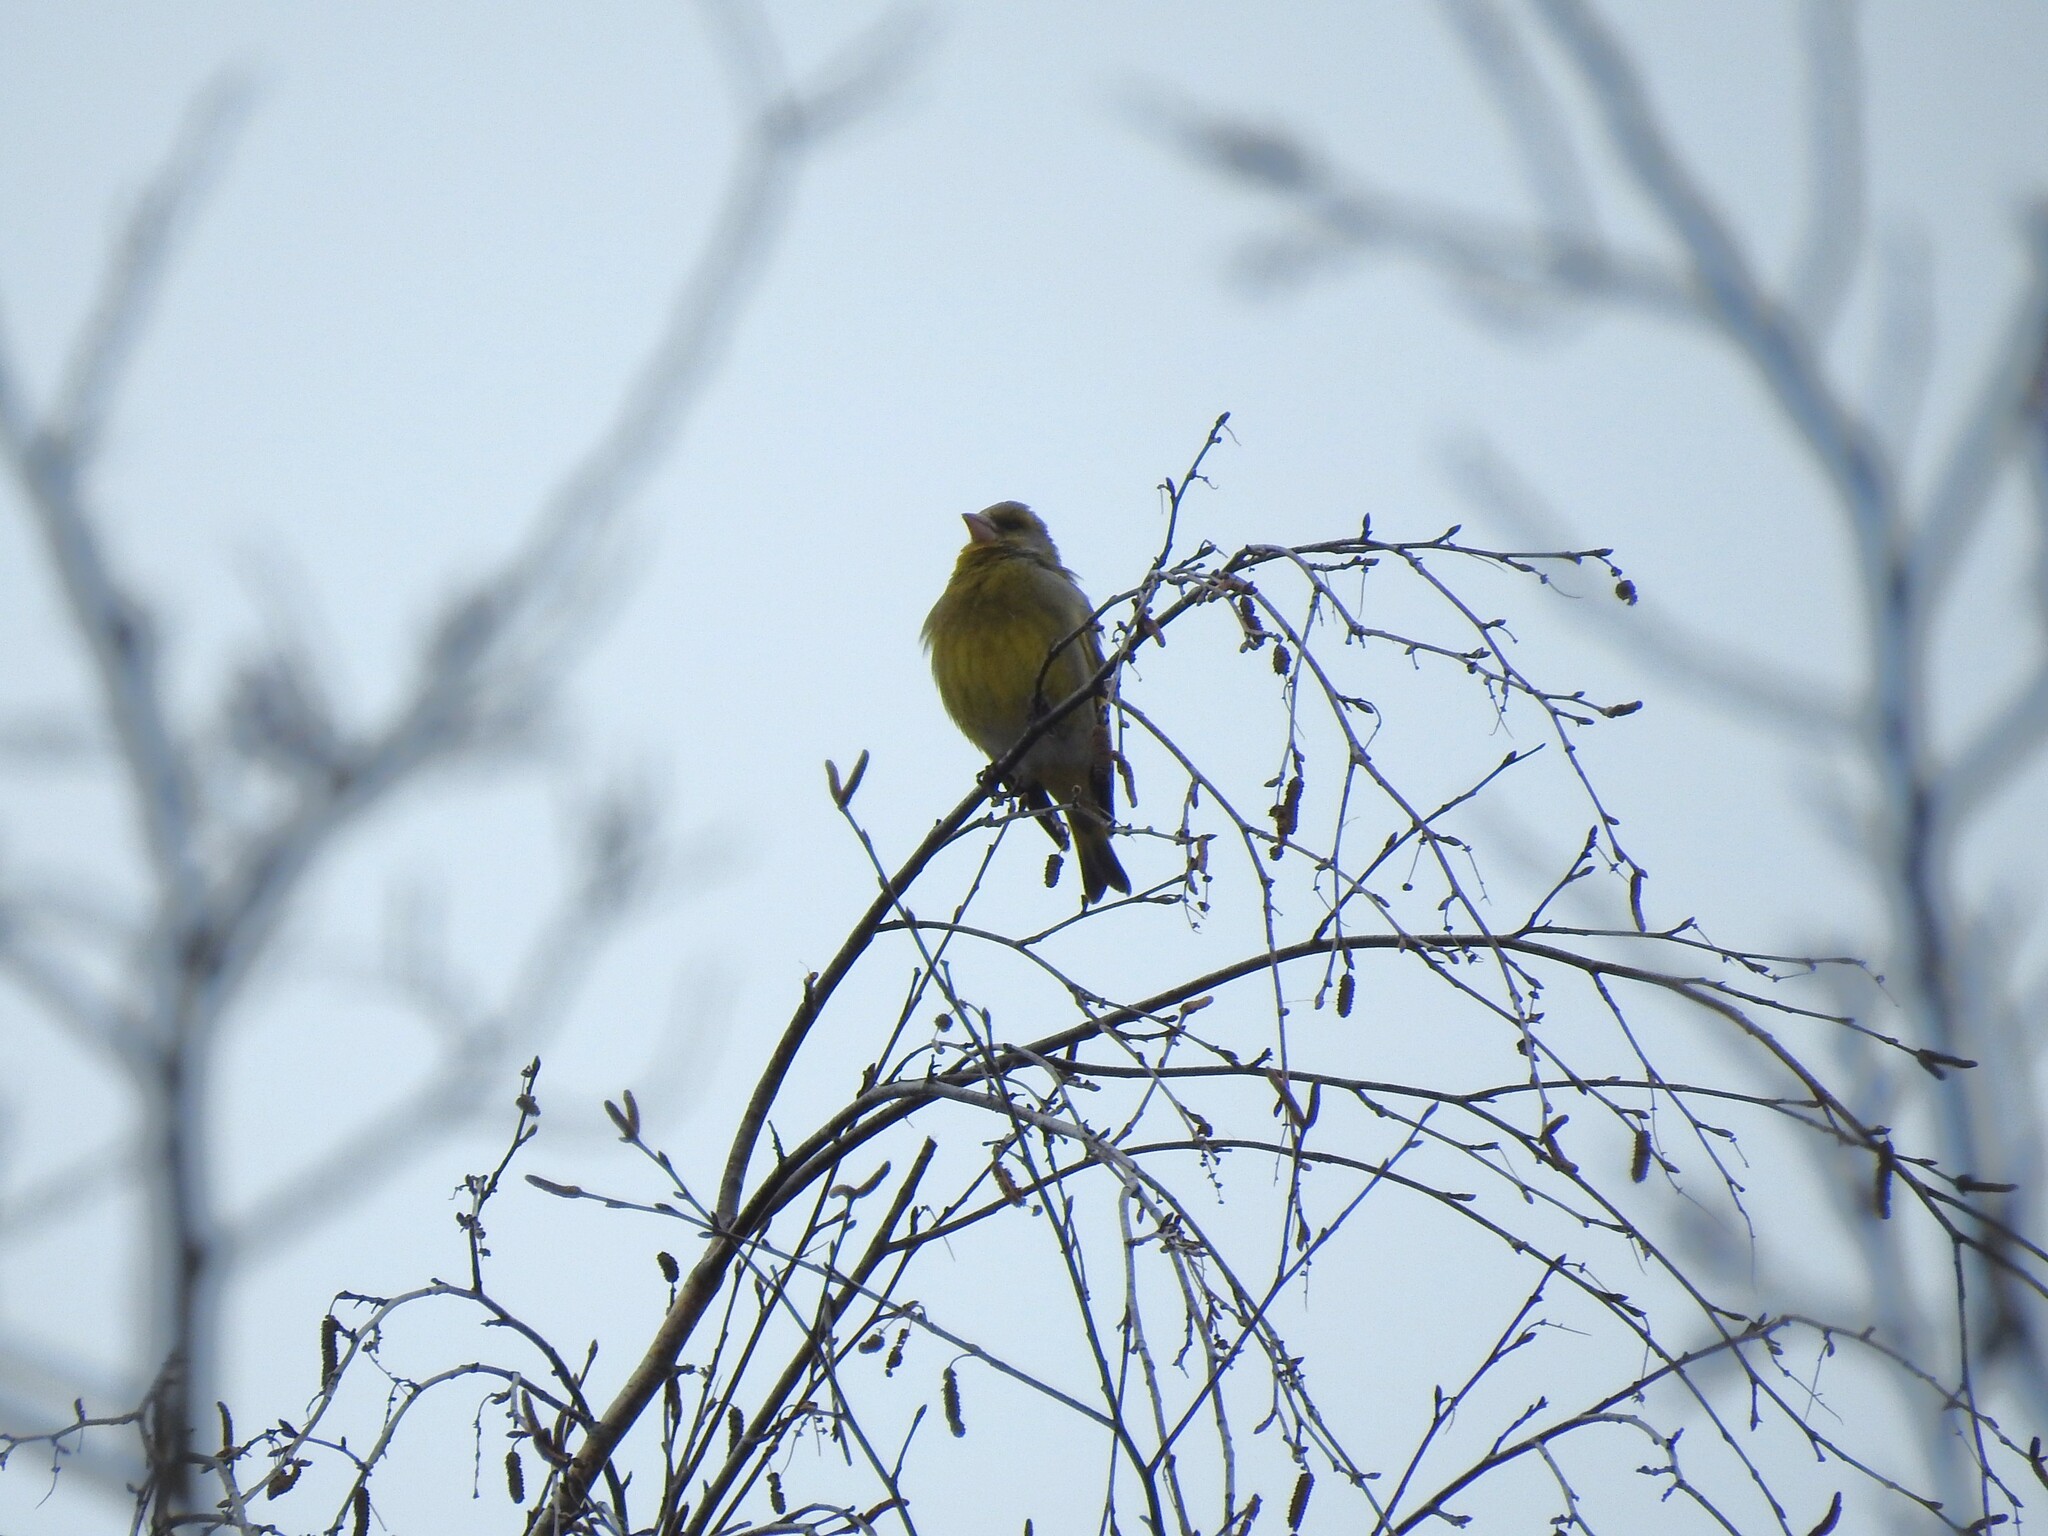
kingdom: Plantae
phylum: Tracheophyta
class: Liliopsida
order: Poales
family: Poaceae
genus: Chloris
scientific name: Chloris chloris
